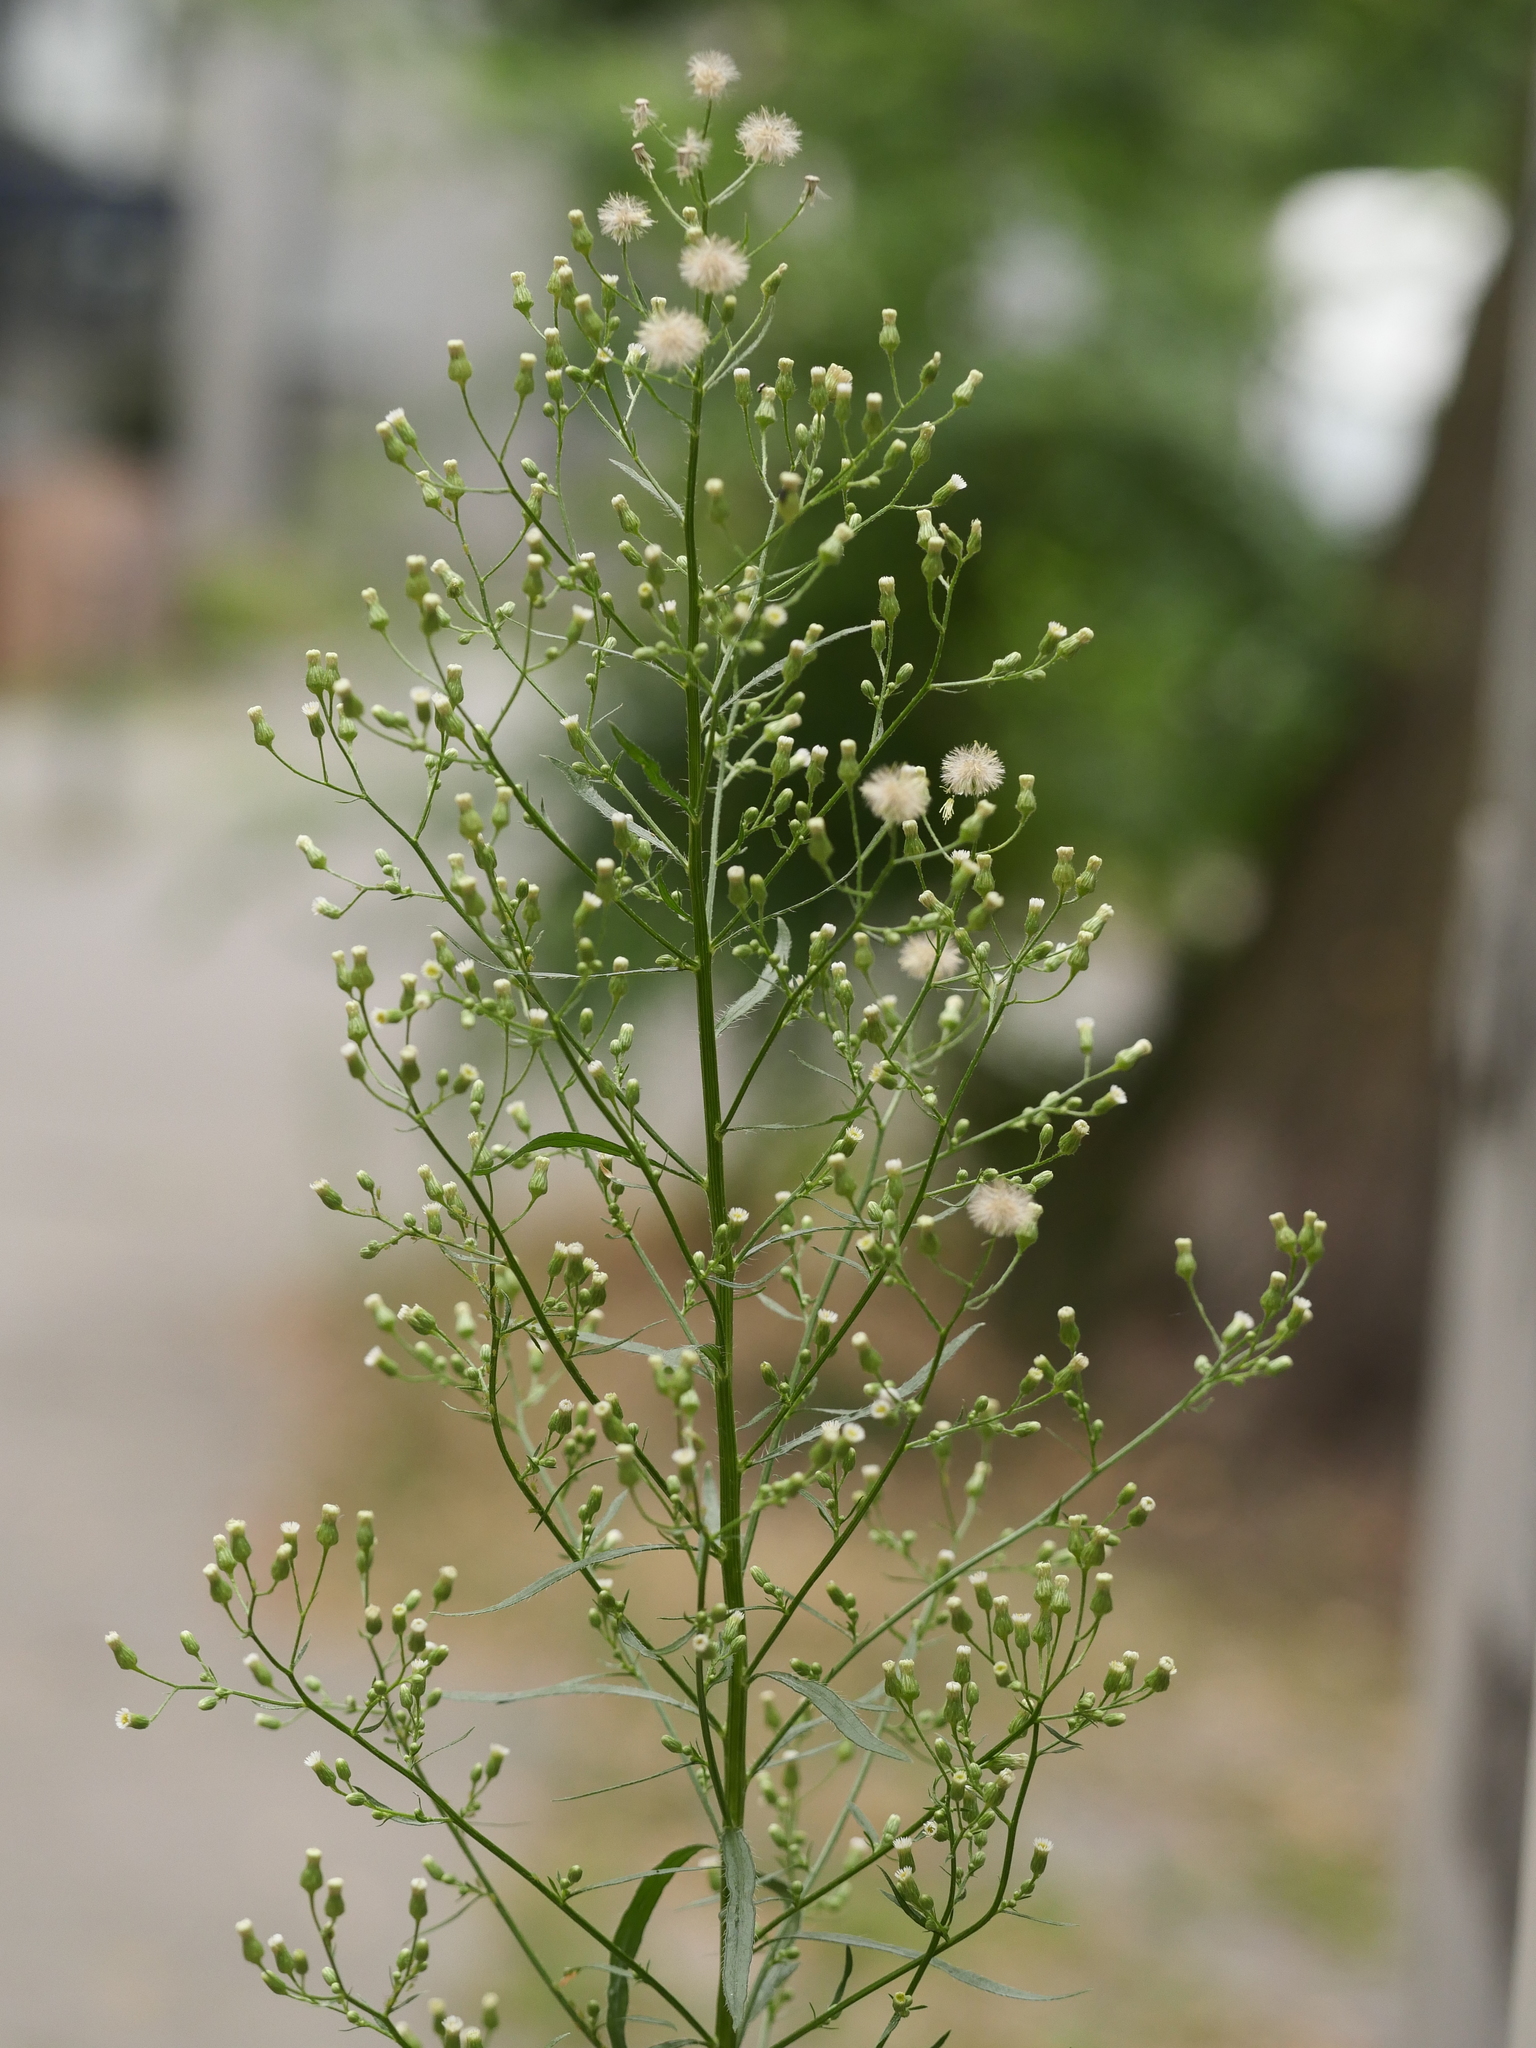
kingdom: Plantae
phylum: Tracheophyta
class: Magnoliopsida
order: Asterales
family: Asteraceae
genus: Erigeron
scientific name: Erigeron canadensis
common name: Canadian fleabane
